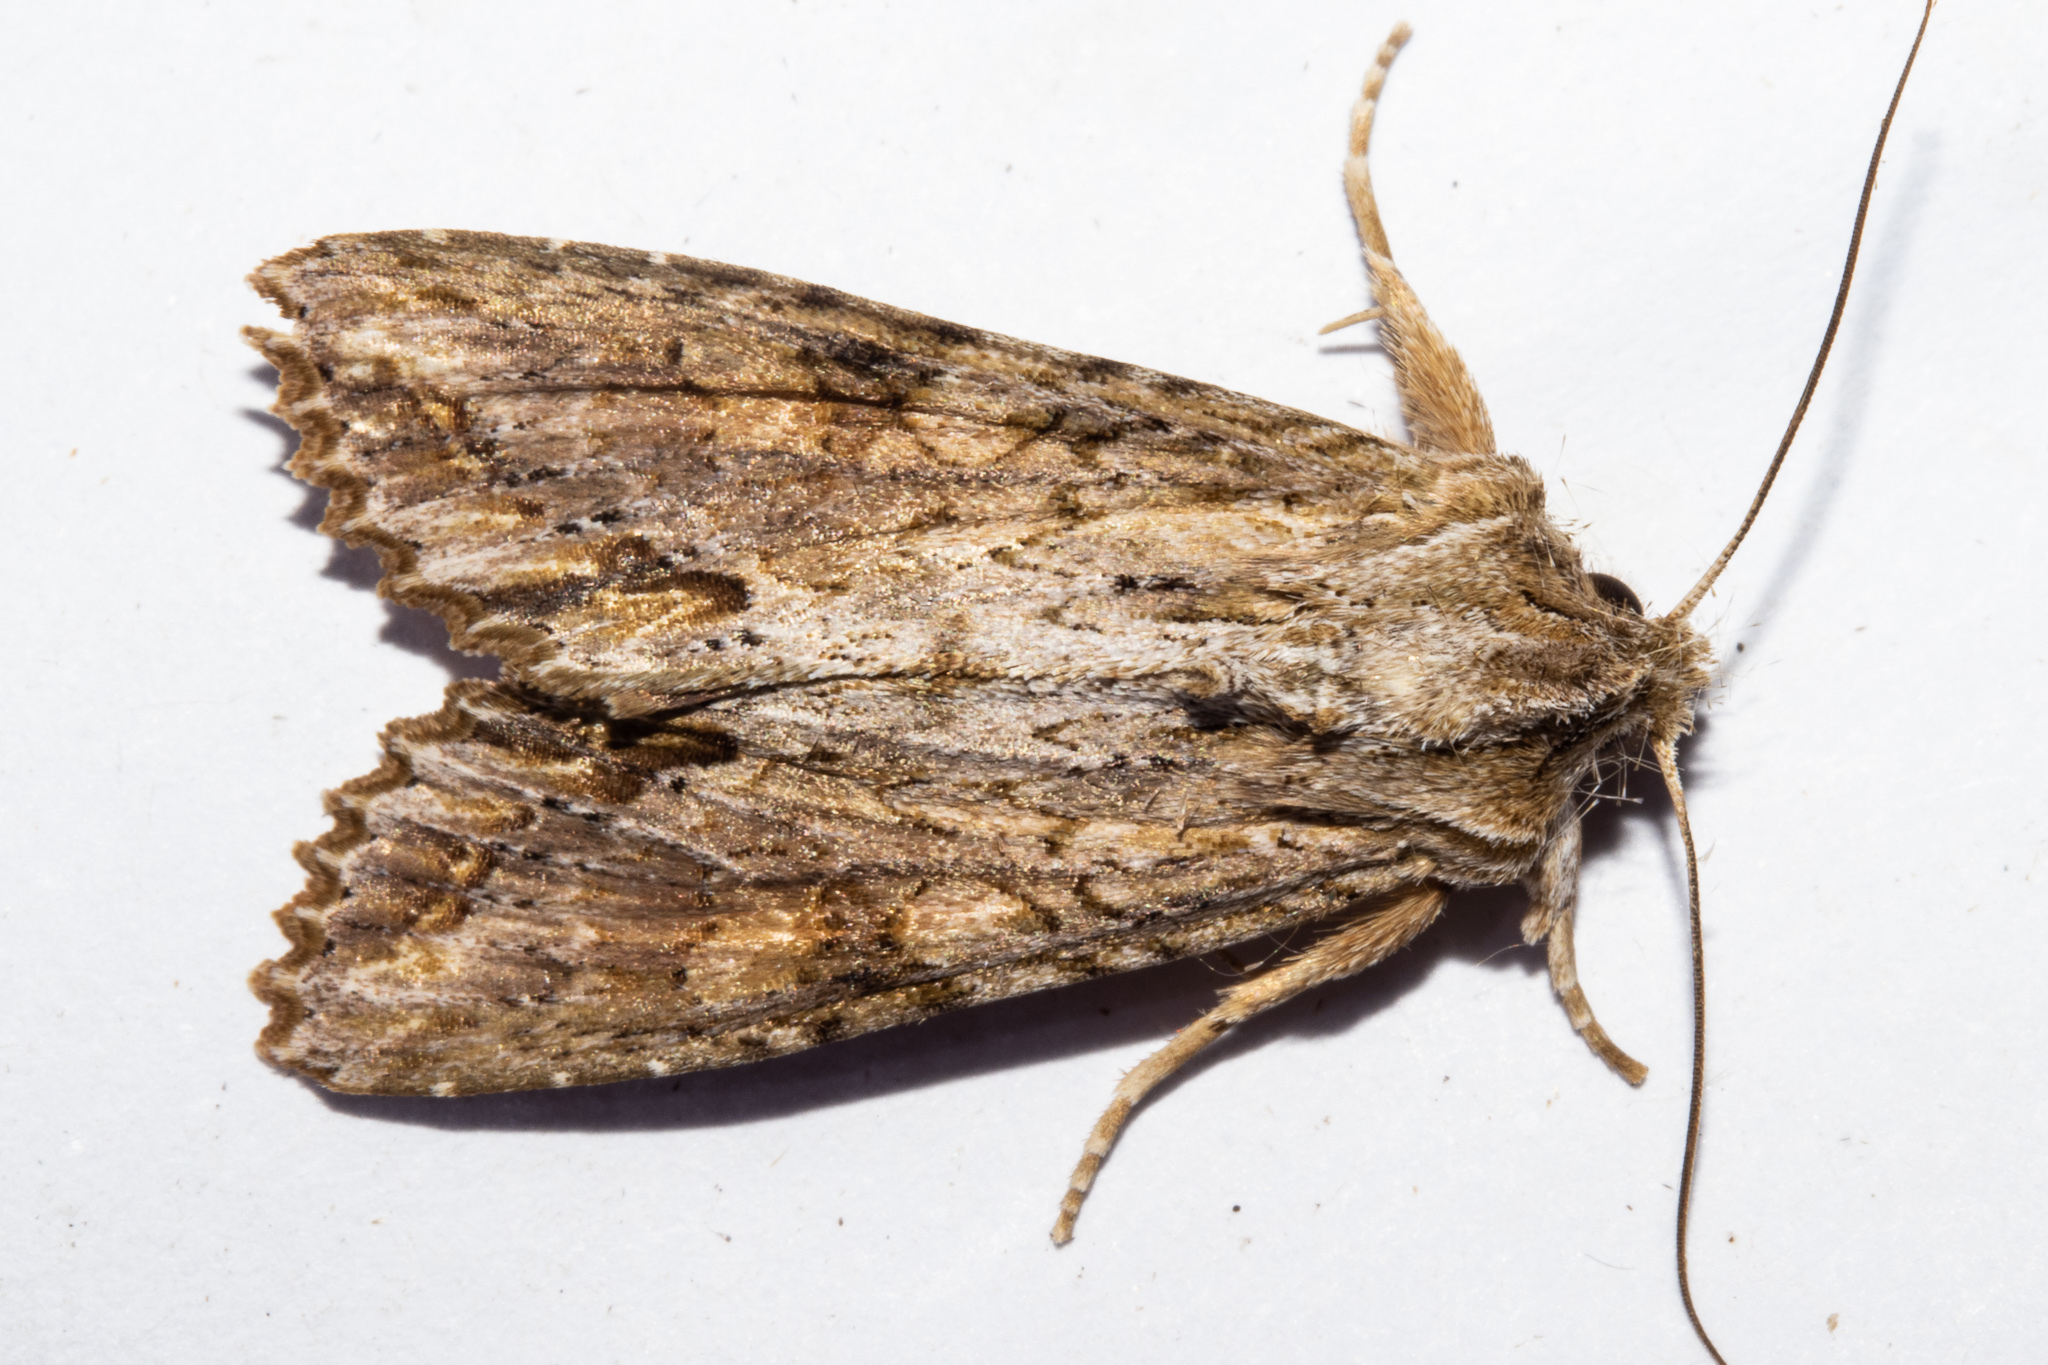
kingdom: Animalia
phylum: Arthropoda
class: Insecta
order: Lepidoptera
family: Noctuidae
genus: Ichneutica
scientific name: Ichneutica mollis
